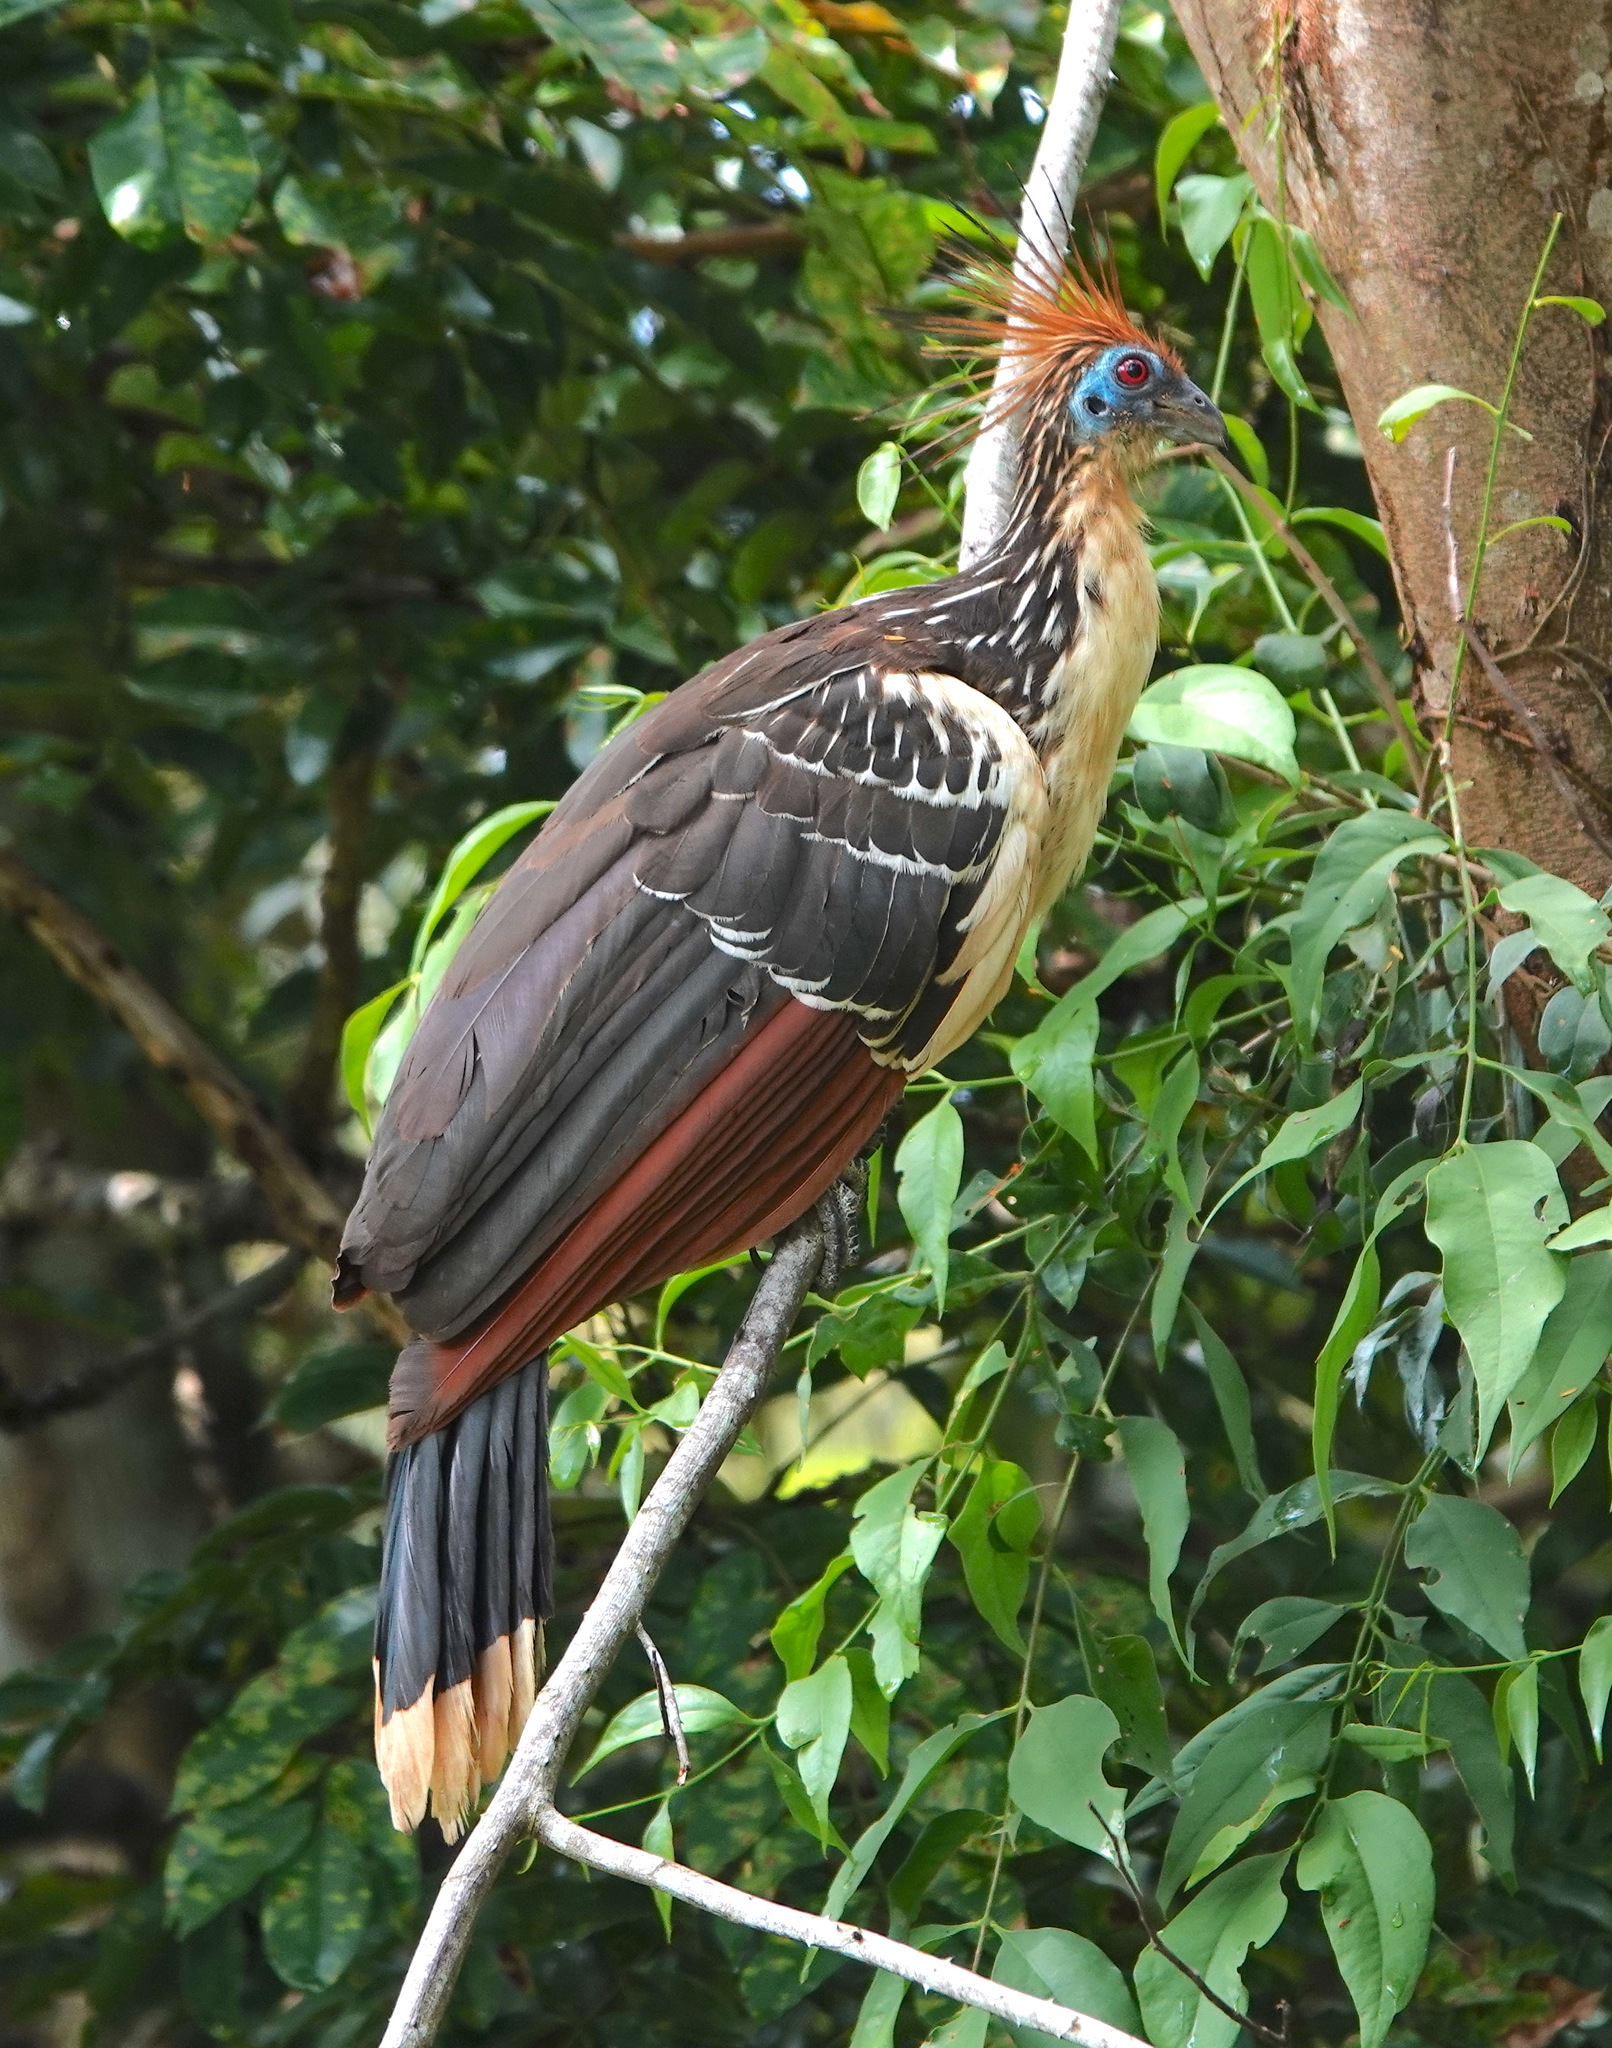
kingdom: Animalia
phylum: Chordata
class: Aves
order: Opisthocomiformes
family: Opisthocomidae
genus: Opisthocomus
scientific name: Opisthocomus hoazin
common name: Hoatzin
